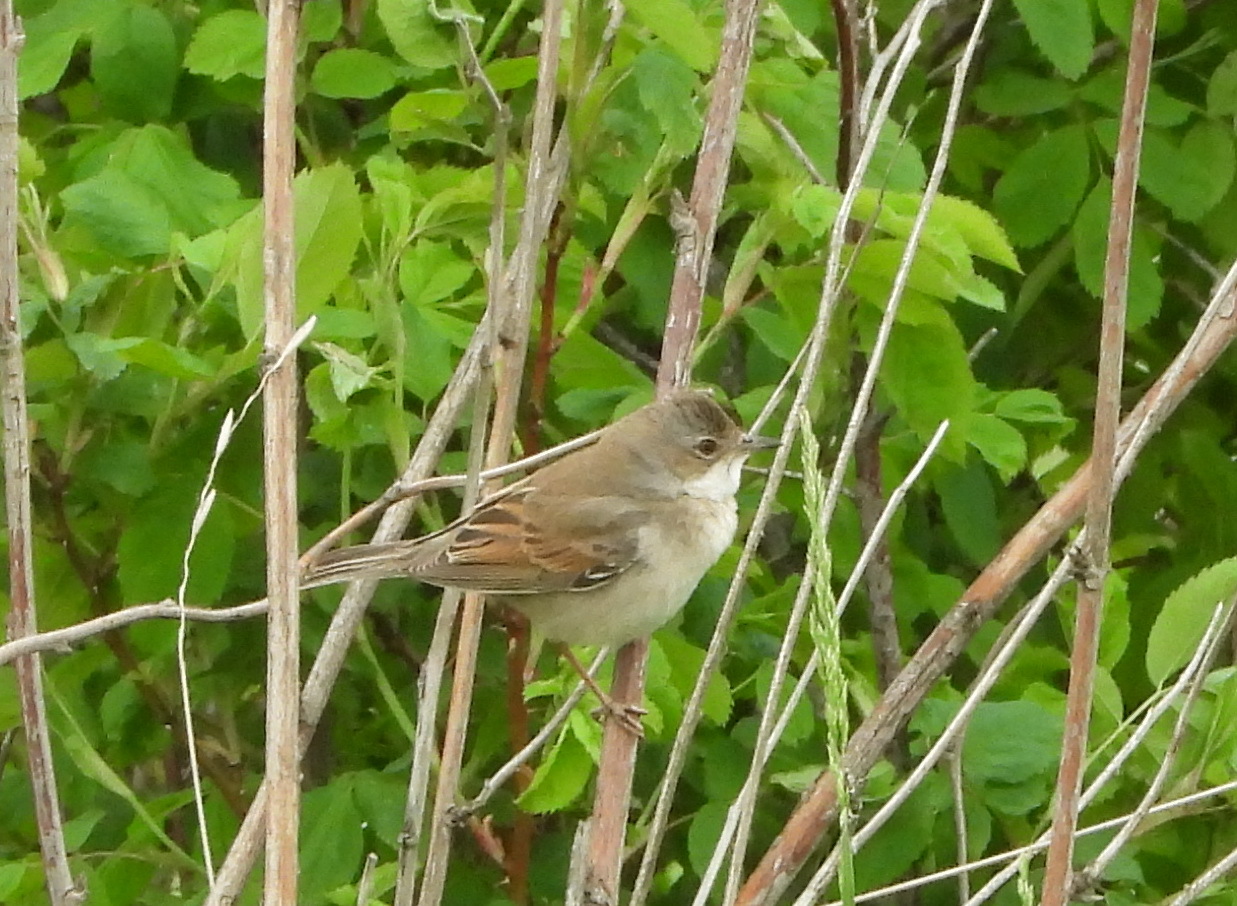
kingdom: Animalia
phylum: Chordata
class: Aves
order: Passeriformes
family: Sylviidae
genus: Sylvia
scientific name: Sylvia communis
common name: Common whitethroat
